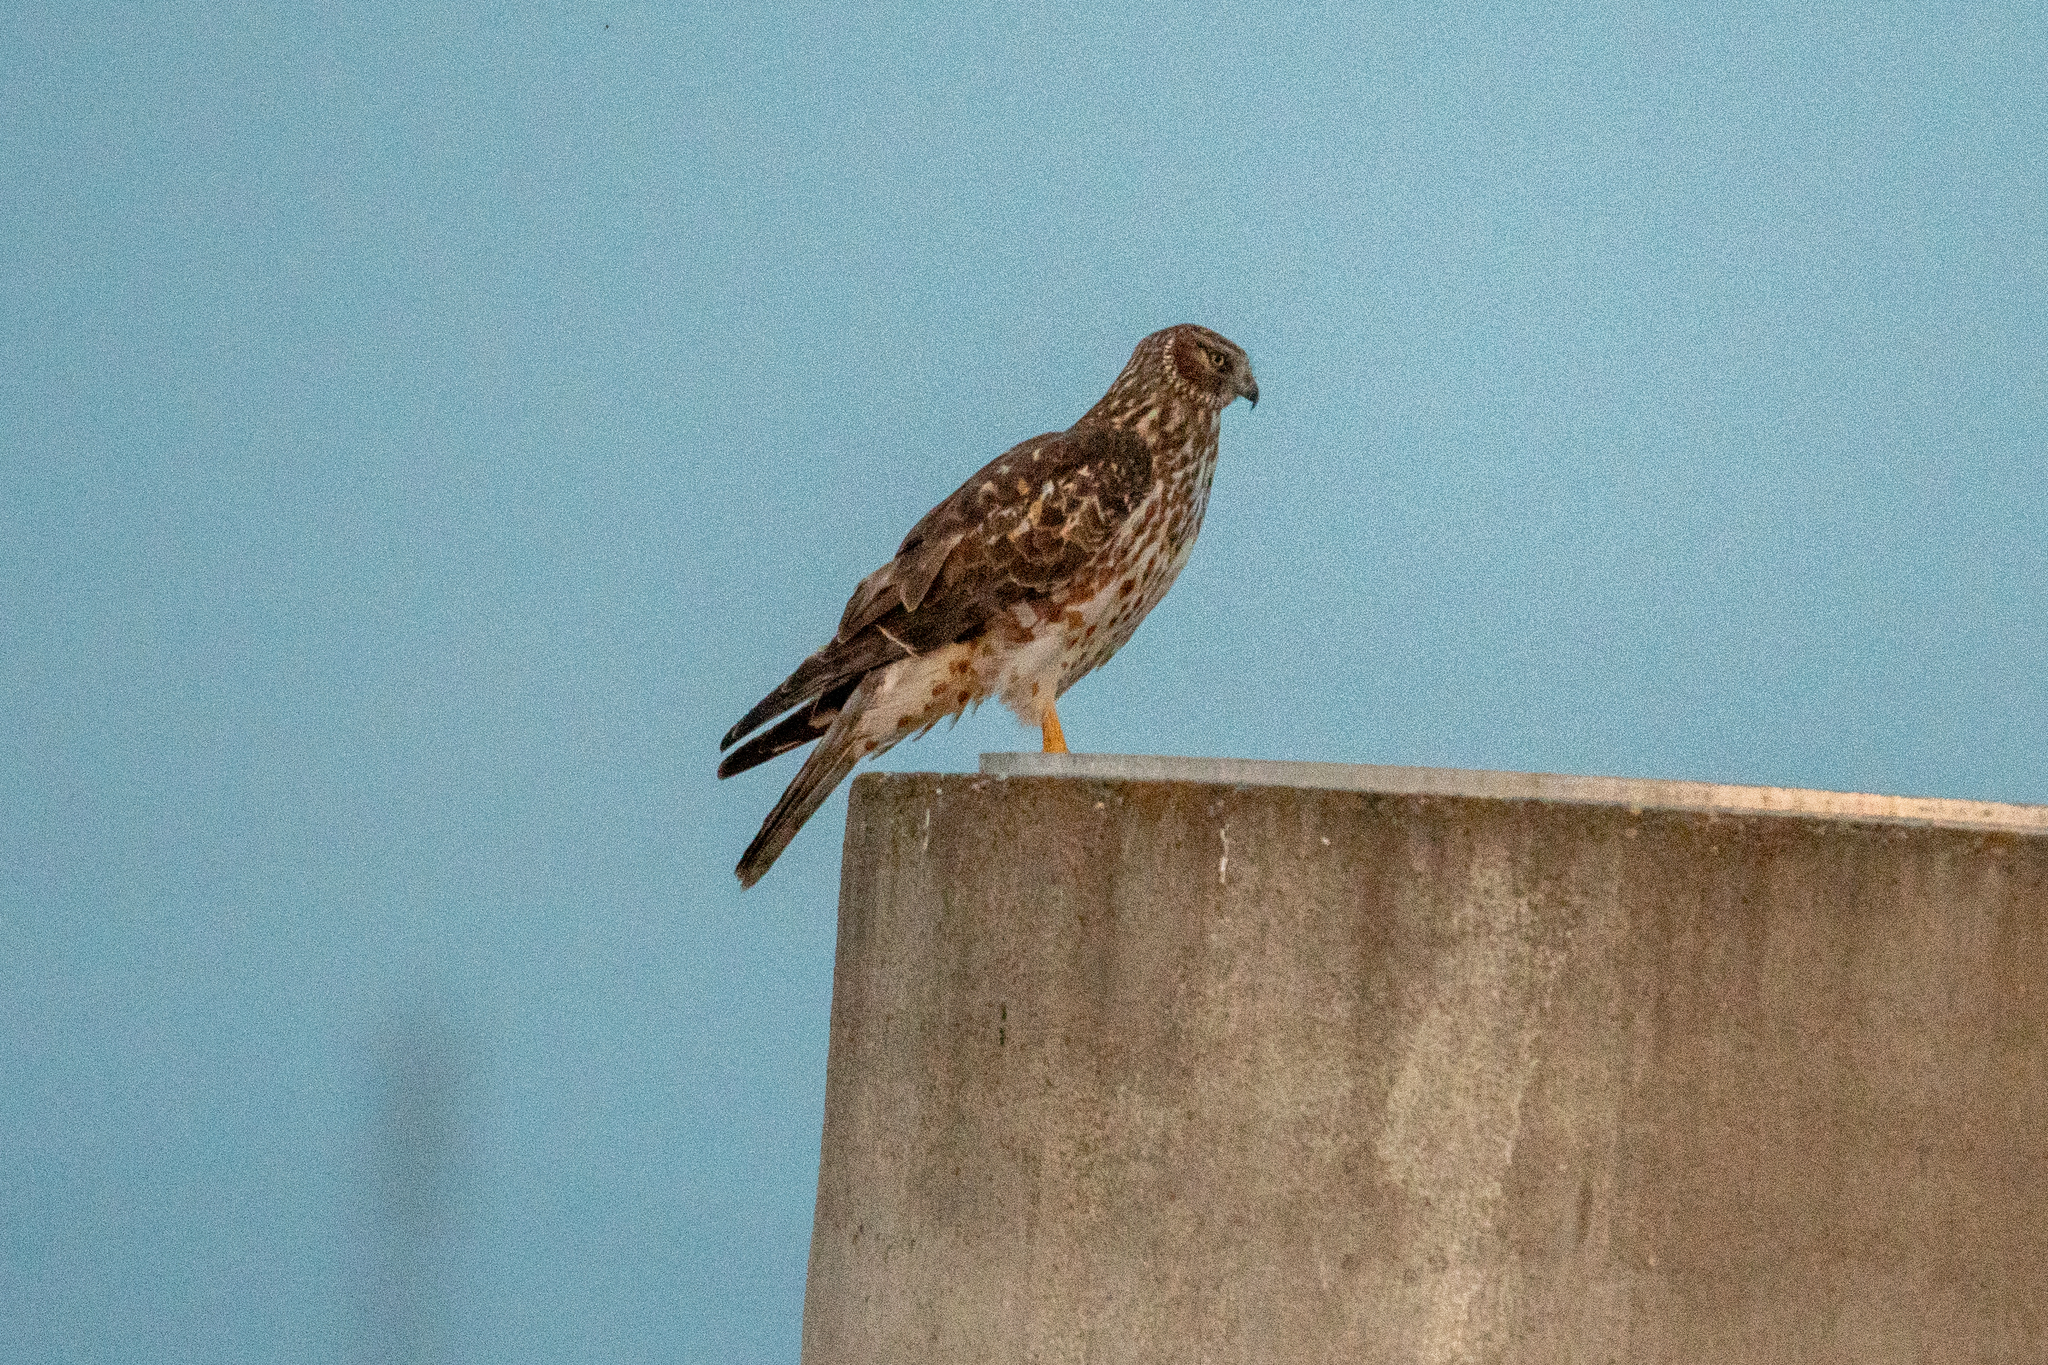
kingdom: Animalia
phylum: Chordata
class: Aves
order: Accipitriformes
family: Accipitridae
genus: Circus
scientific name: Circus cyaneus
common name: Hen harrier
